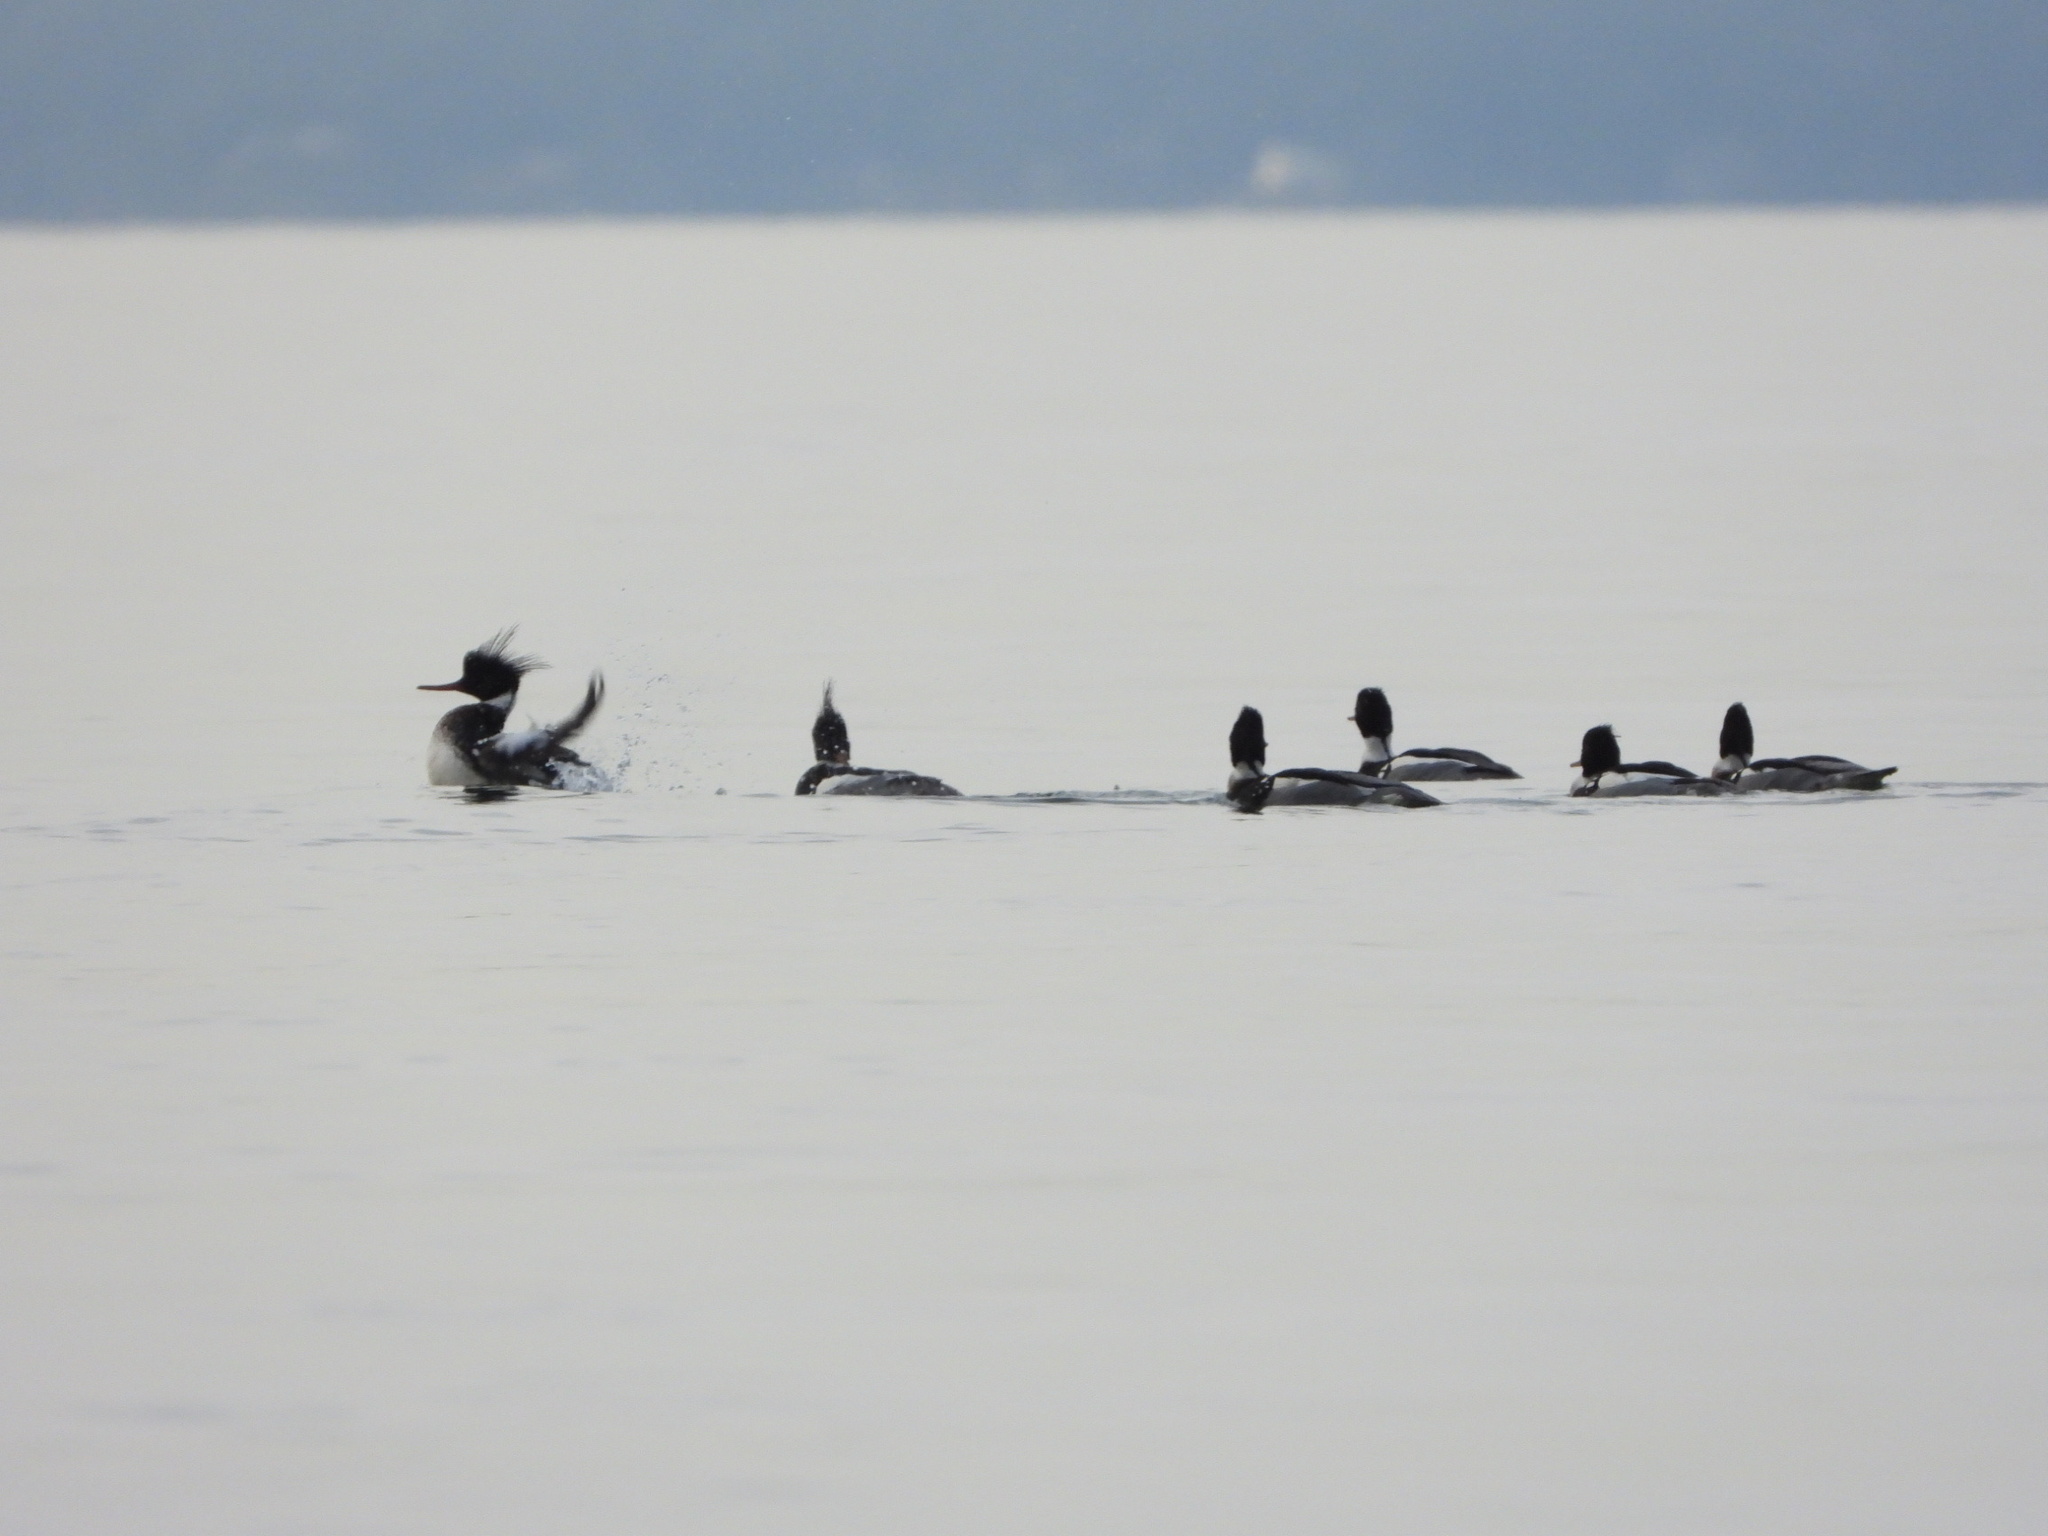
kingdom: Animalia
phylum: Chordata
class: Aves
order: Anseriformes
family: Anatidae
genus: Mergus
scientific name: Mergus serrator
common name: Red-breasted merganser
